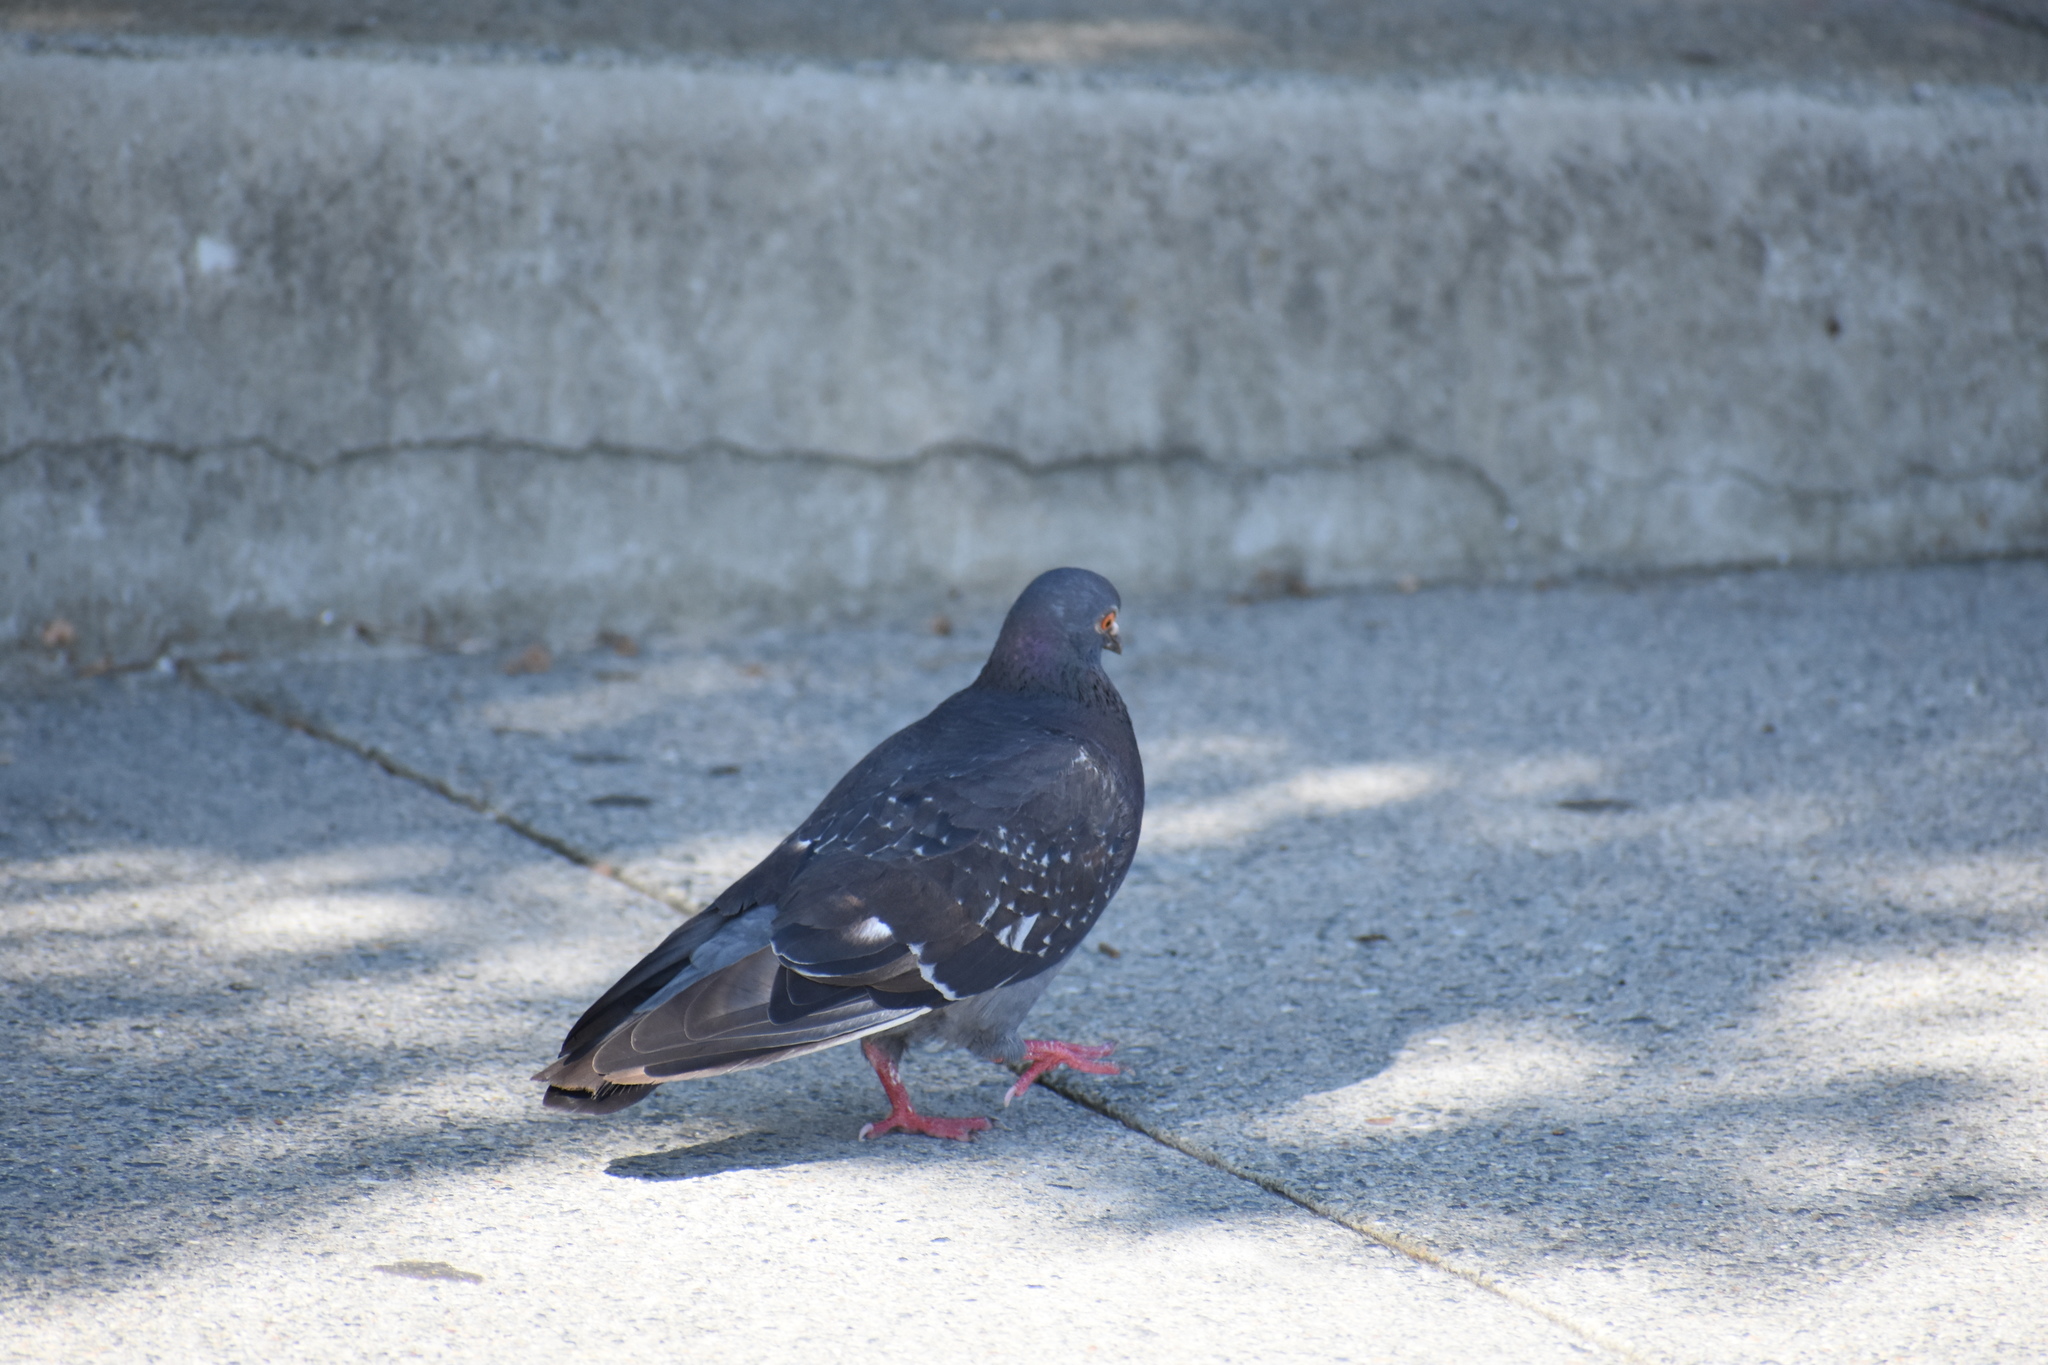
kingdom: Animalia
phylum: Chordata
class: Aves
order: Columbiformes
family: Columbidae
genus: Columba
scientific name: Columba livia
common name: Rock pigeon
